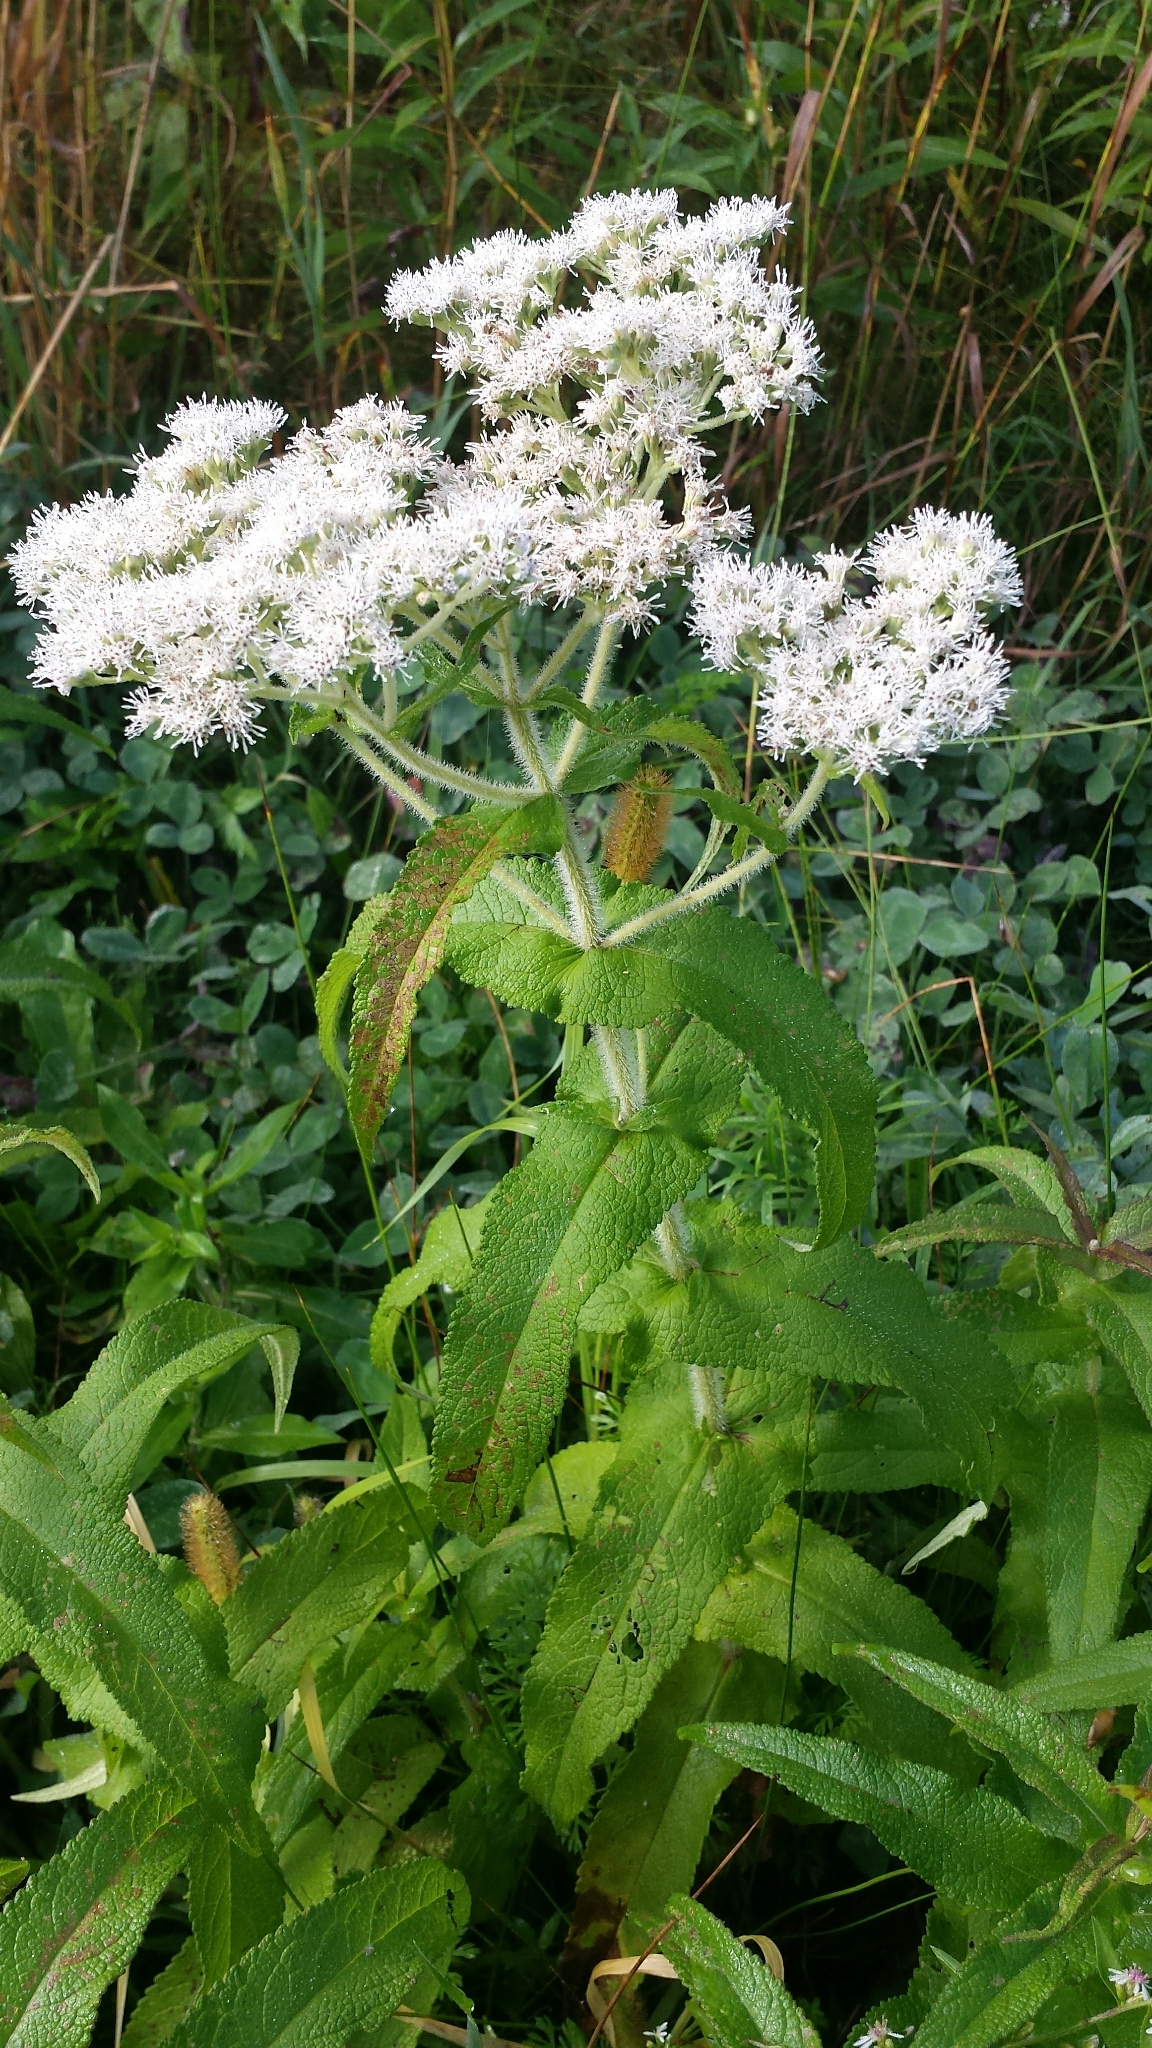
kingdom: Plantae
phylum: Tracheophyta
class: Magnoliopsida
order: Asterales
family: Asteraceae
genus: Eupatorium
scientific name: Eupatorium perfoliatum
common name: Boneset
